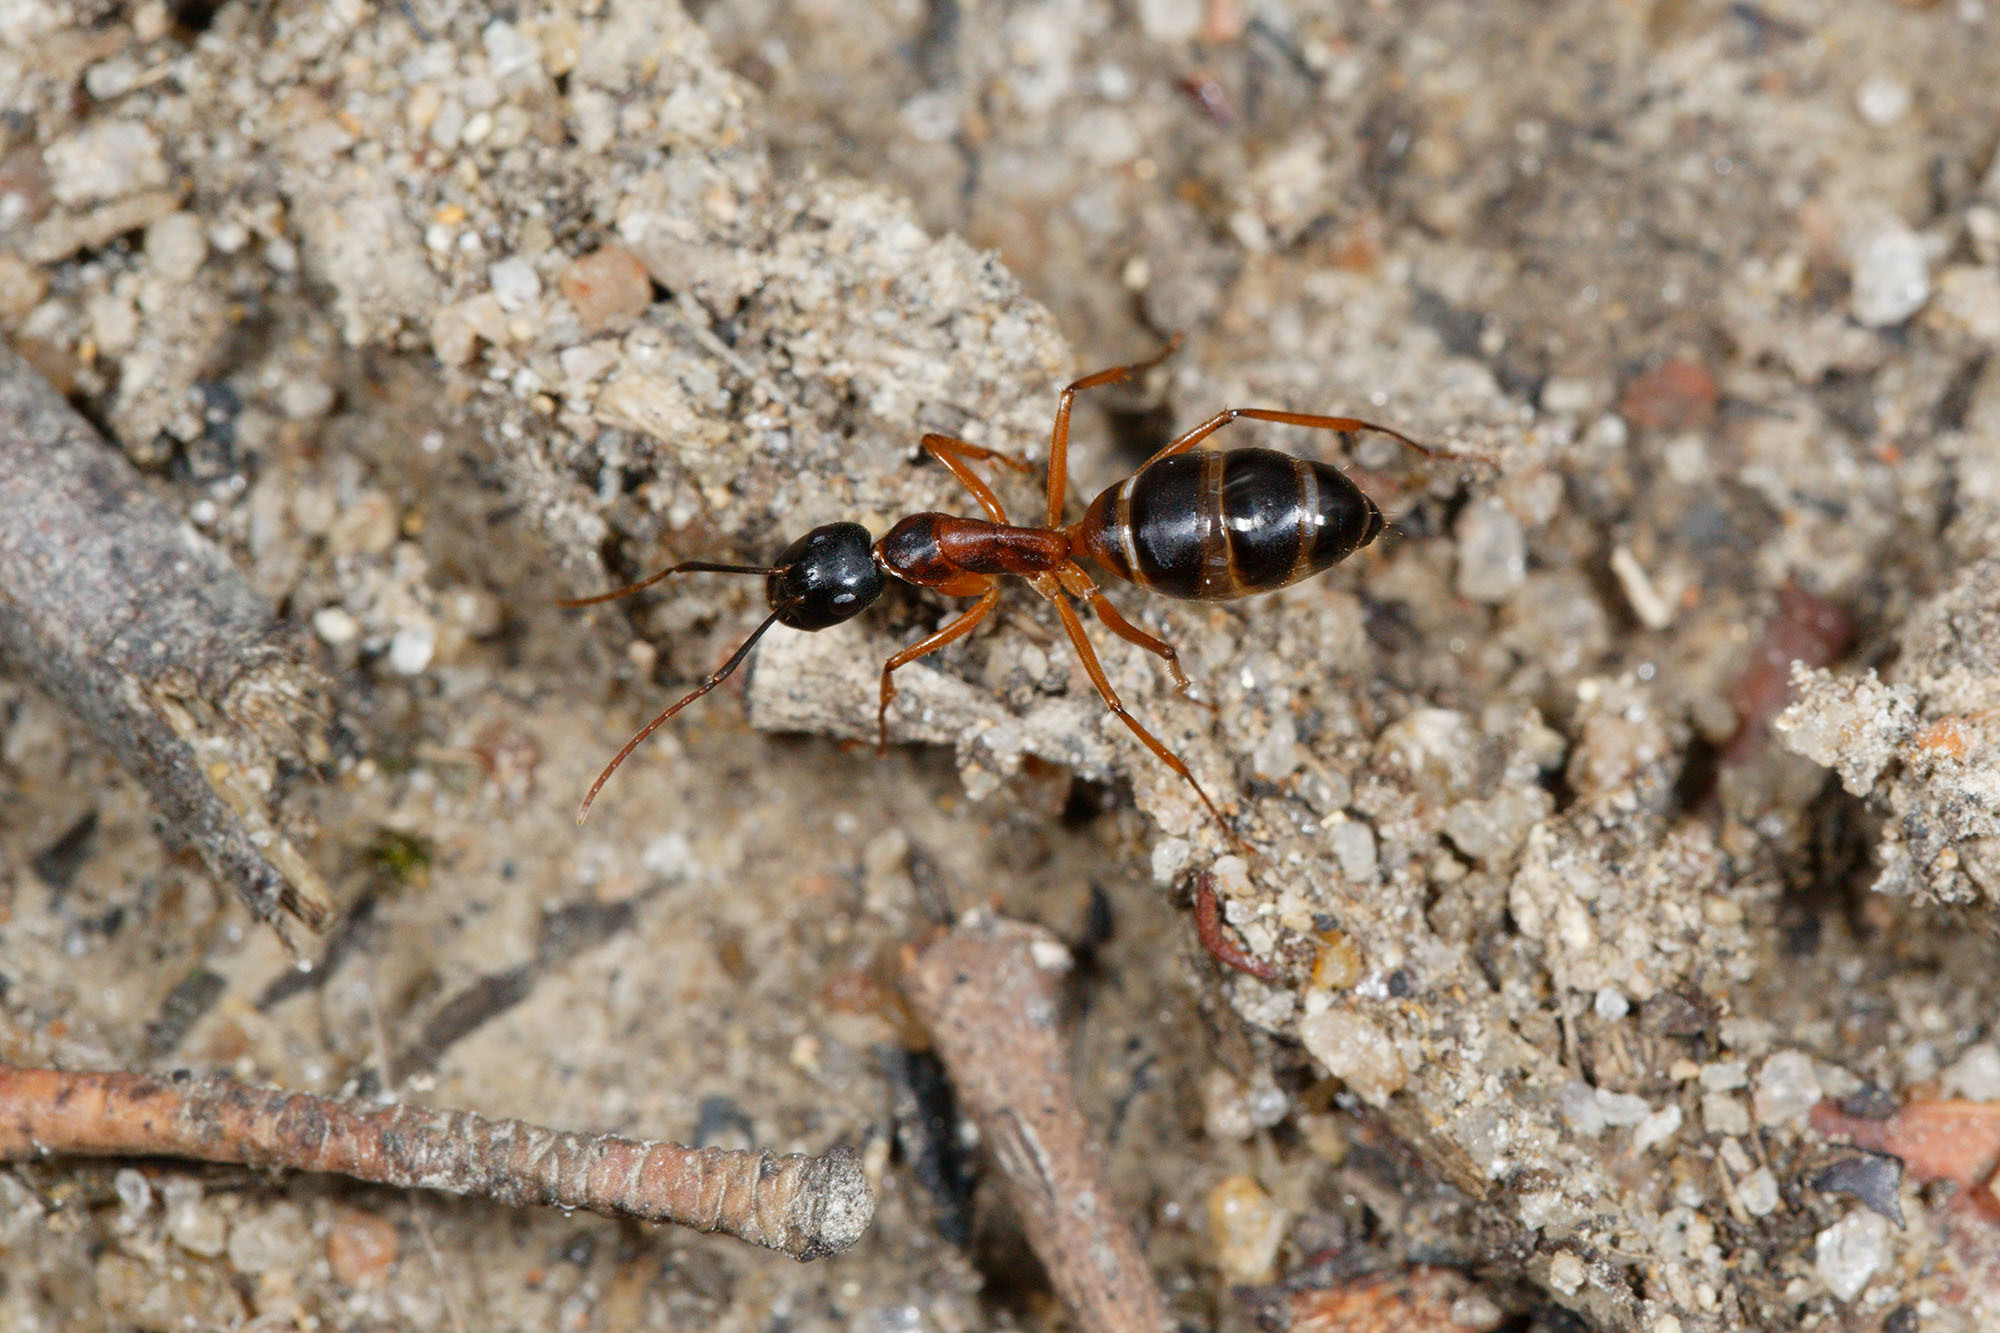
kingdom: Animalia
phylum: Arthropoda
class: Insecta
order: Hymenoptera
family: Formicidae
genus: Camponotus
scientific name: Camponotus consobrinus
